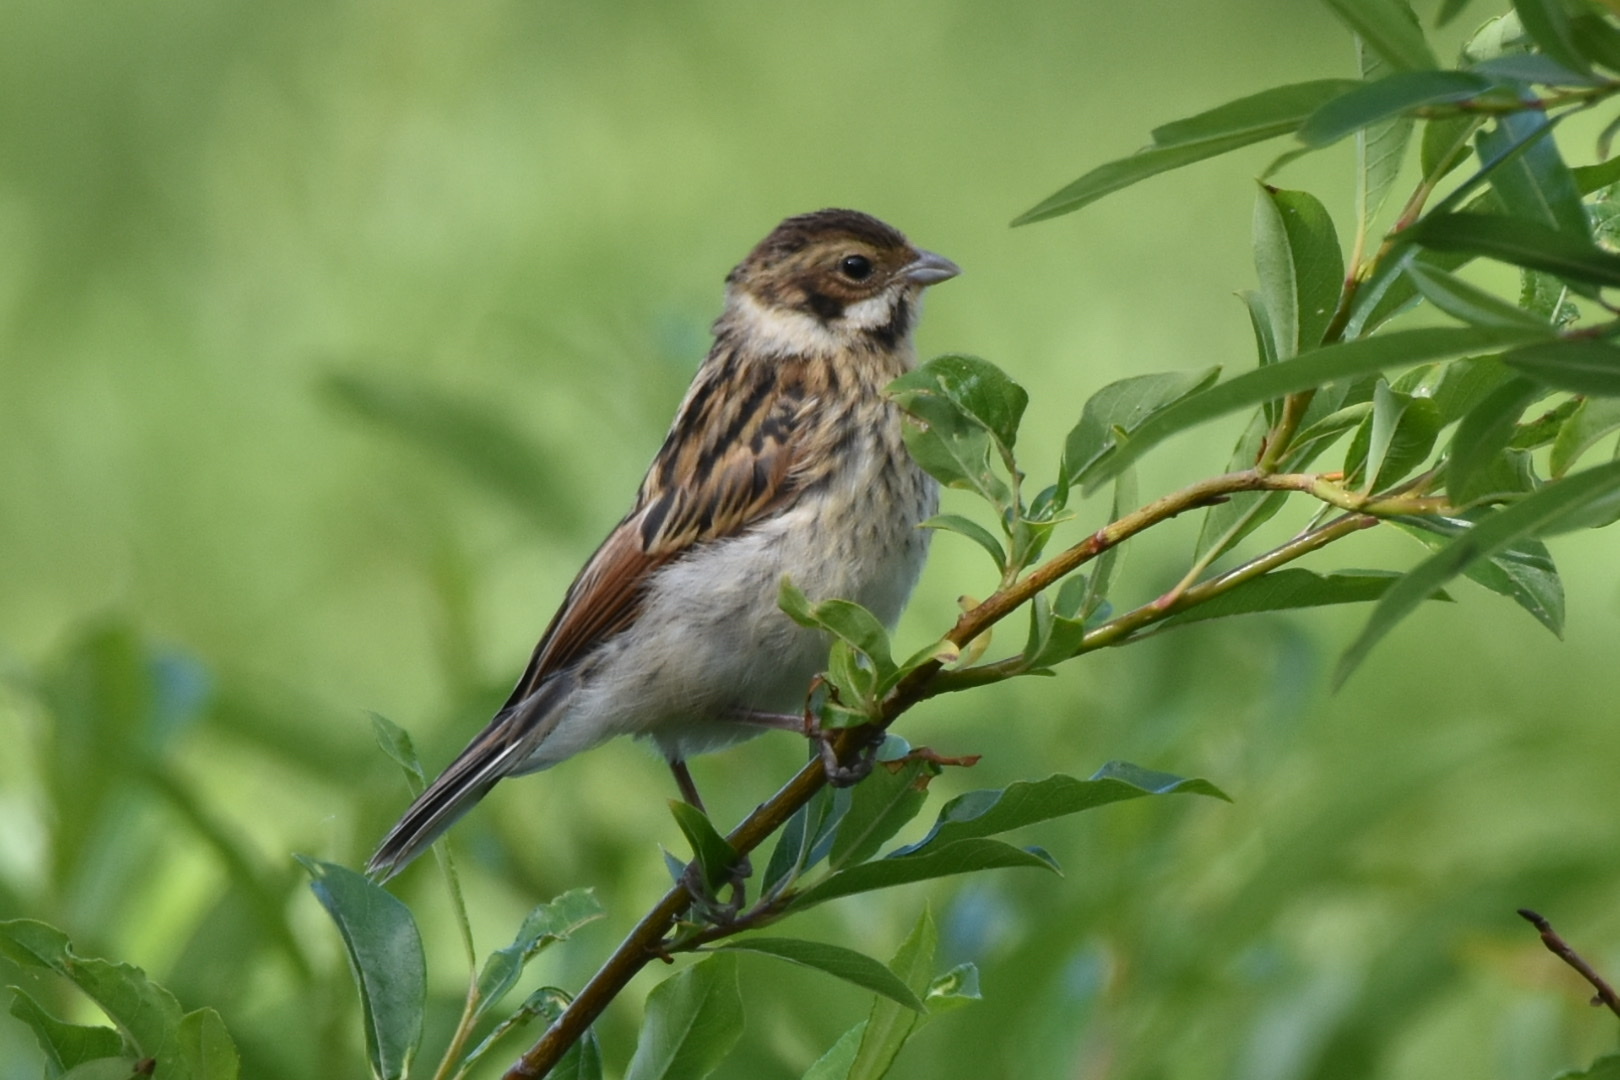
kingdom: Animalia
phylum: Chordata
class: Aves
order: Passeriformes
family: Emberizidae
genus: Emberiza
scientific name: Emberiza schoeniclus
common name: Reed bunting
